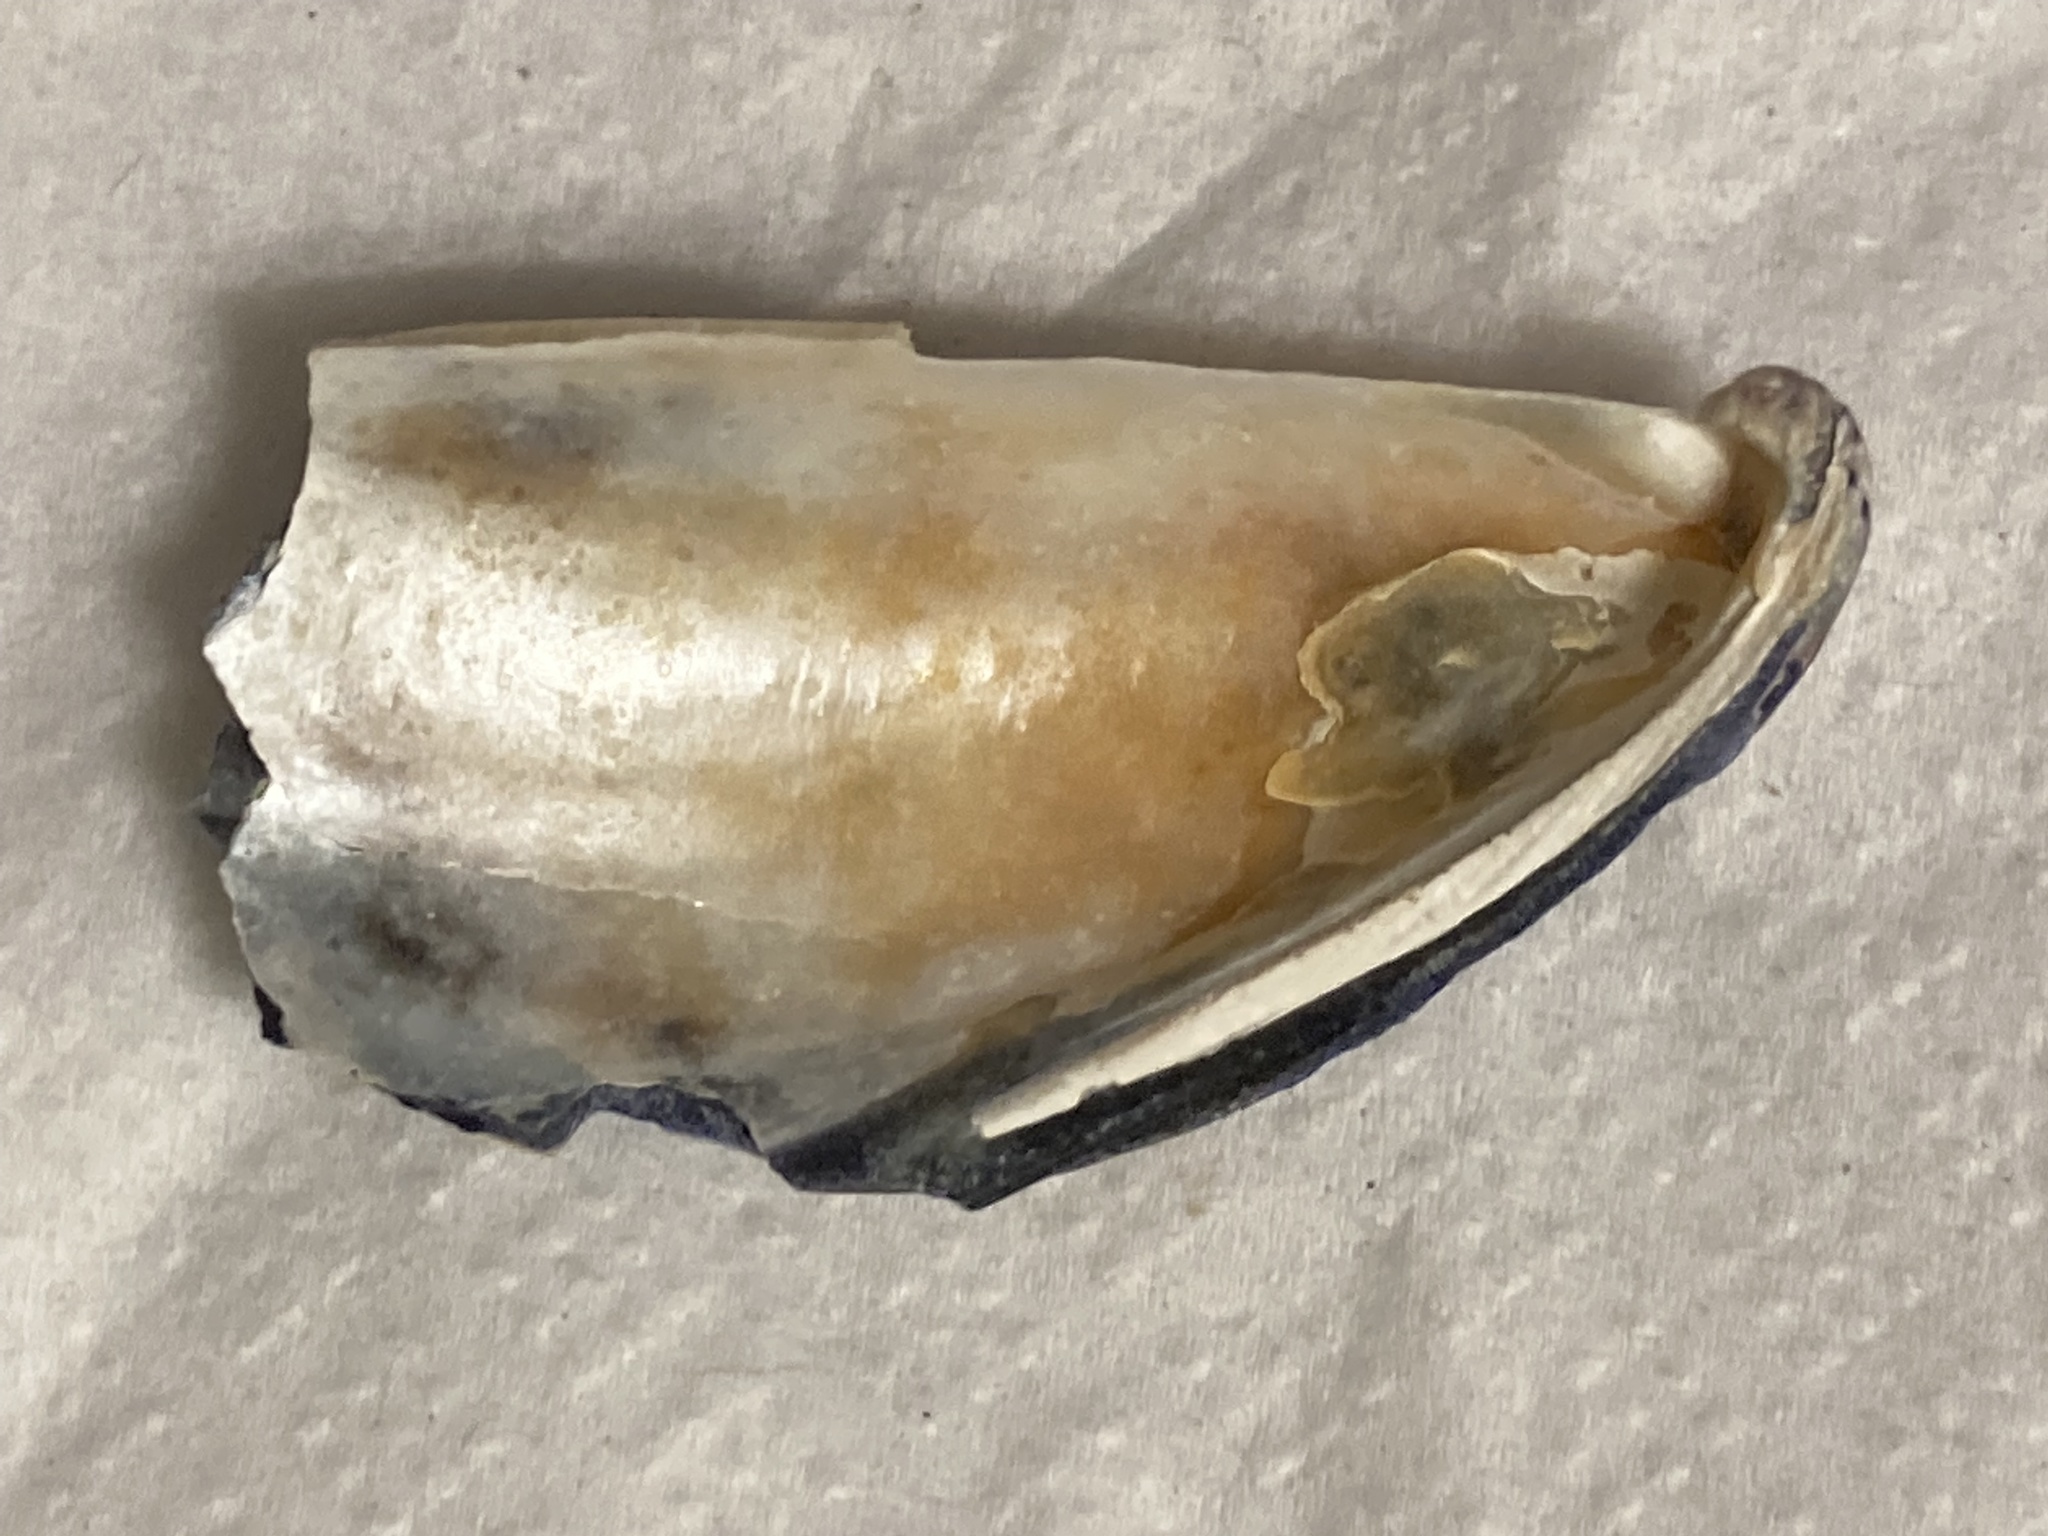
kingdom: Animalia
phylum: Mollusca
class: Bivalvia
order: Mytilida
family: Mytilidae
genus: Mytilus
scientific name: Mytilus californianus
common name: California mussel
